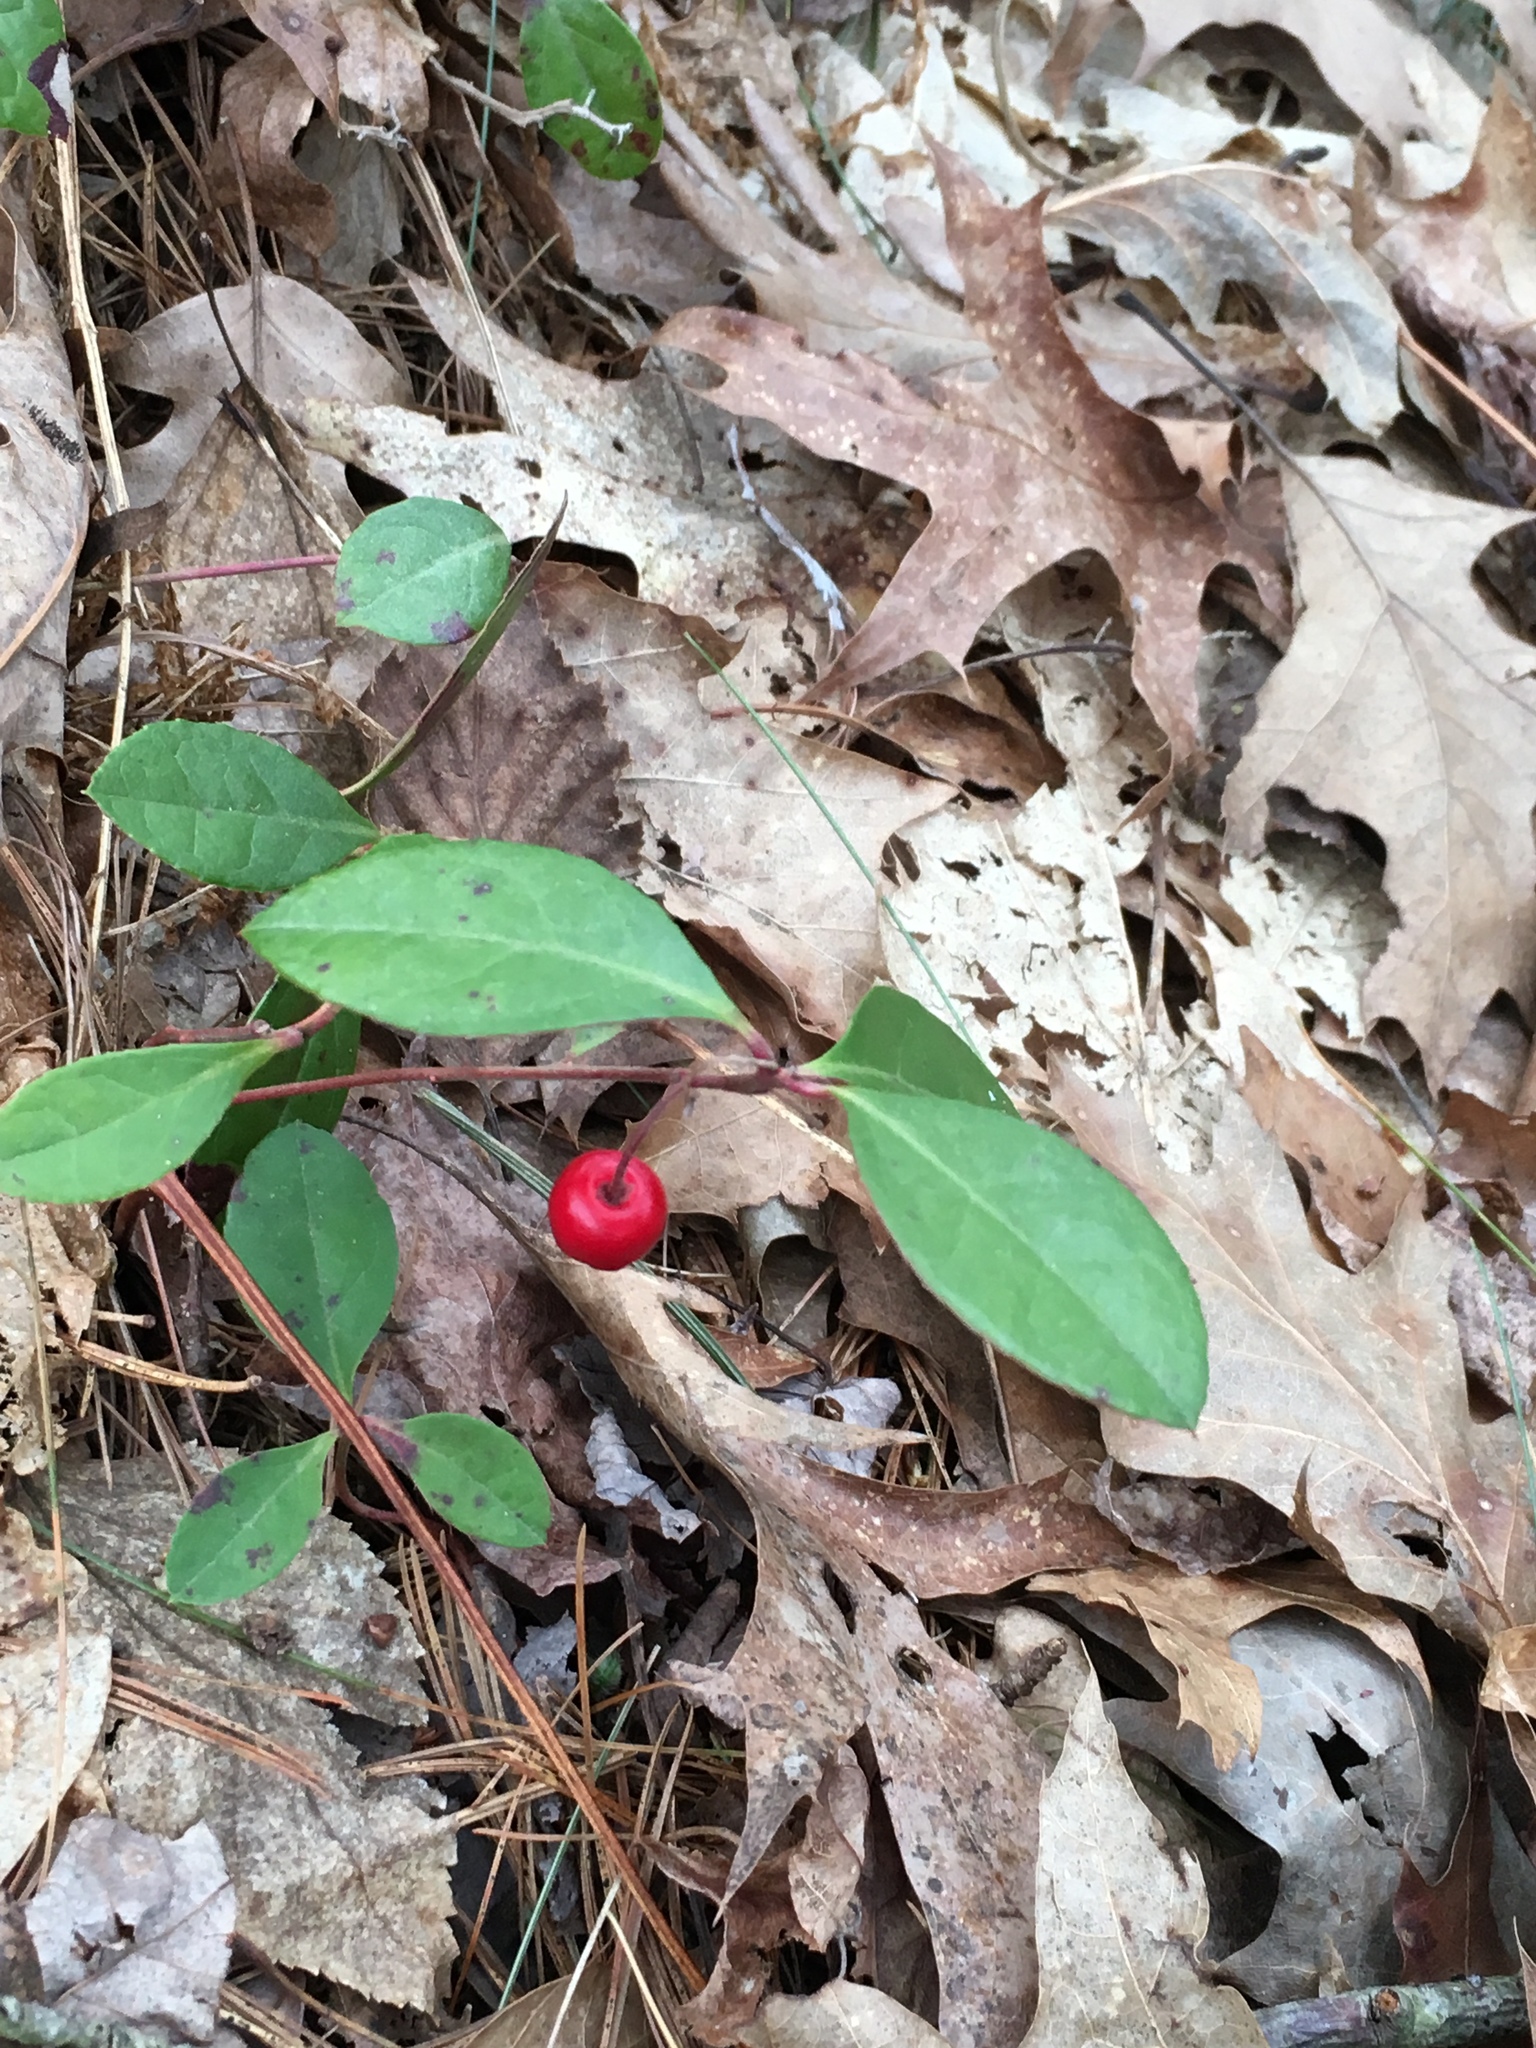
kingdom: Plantae
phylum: Tracheophyta
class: Magnoliopsida
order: Ericales
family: Ericaceae
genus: Gaultheria
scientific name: Gaultheria procumbens
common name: Checkerberry
